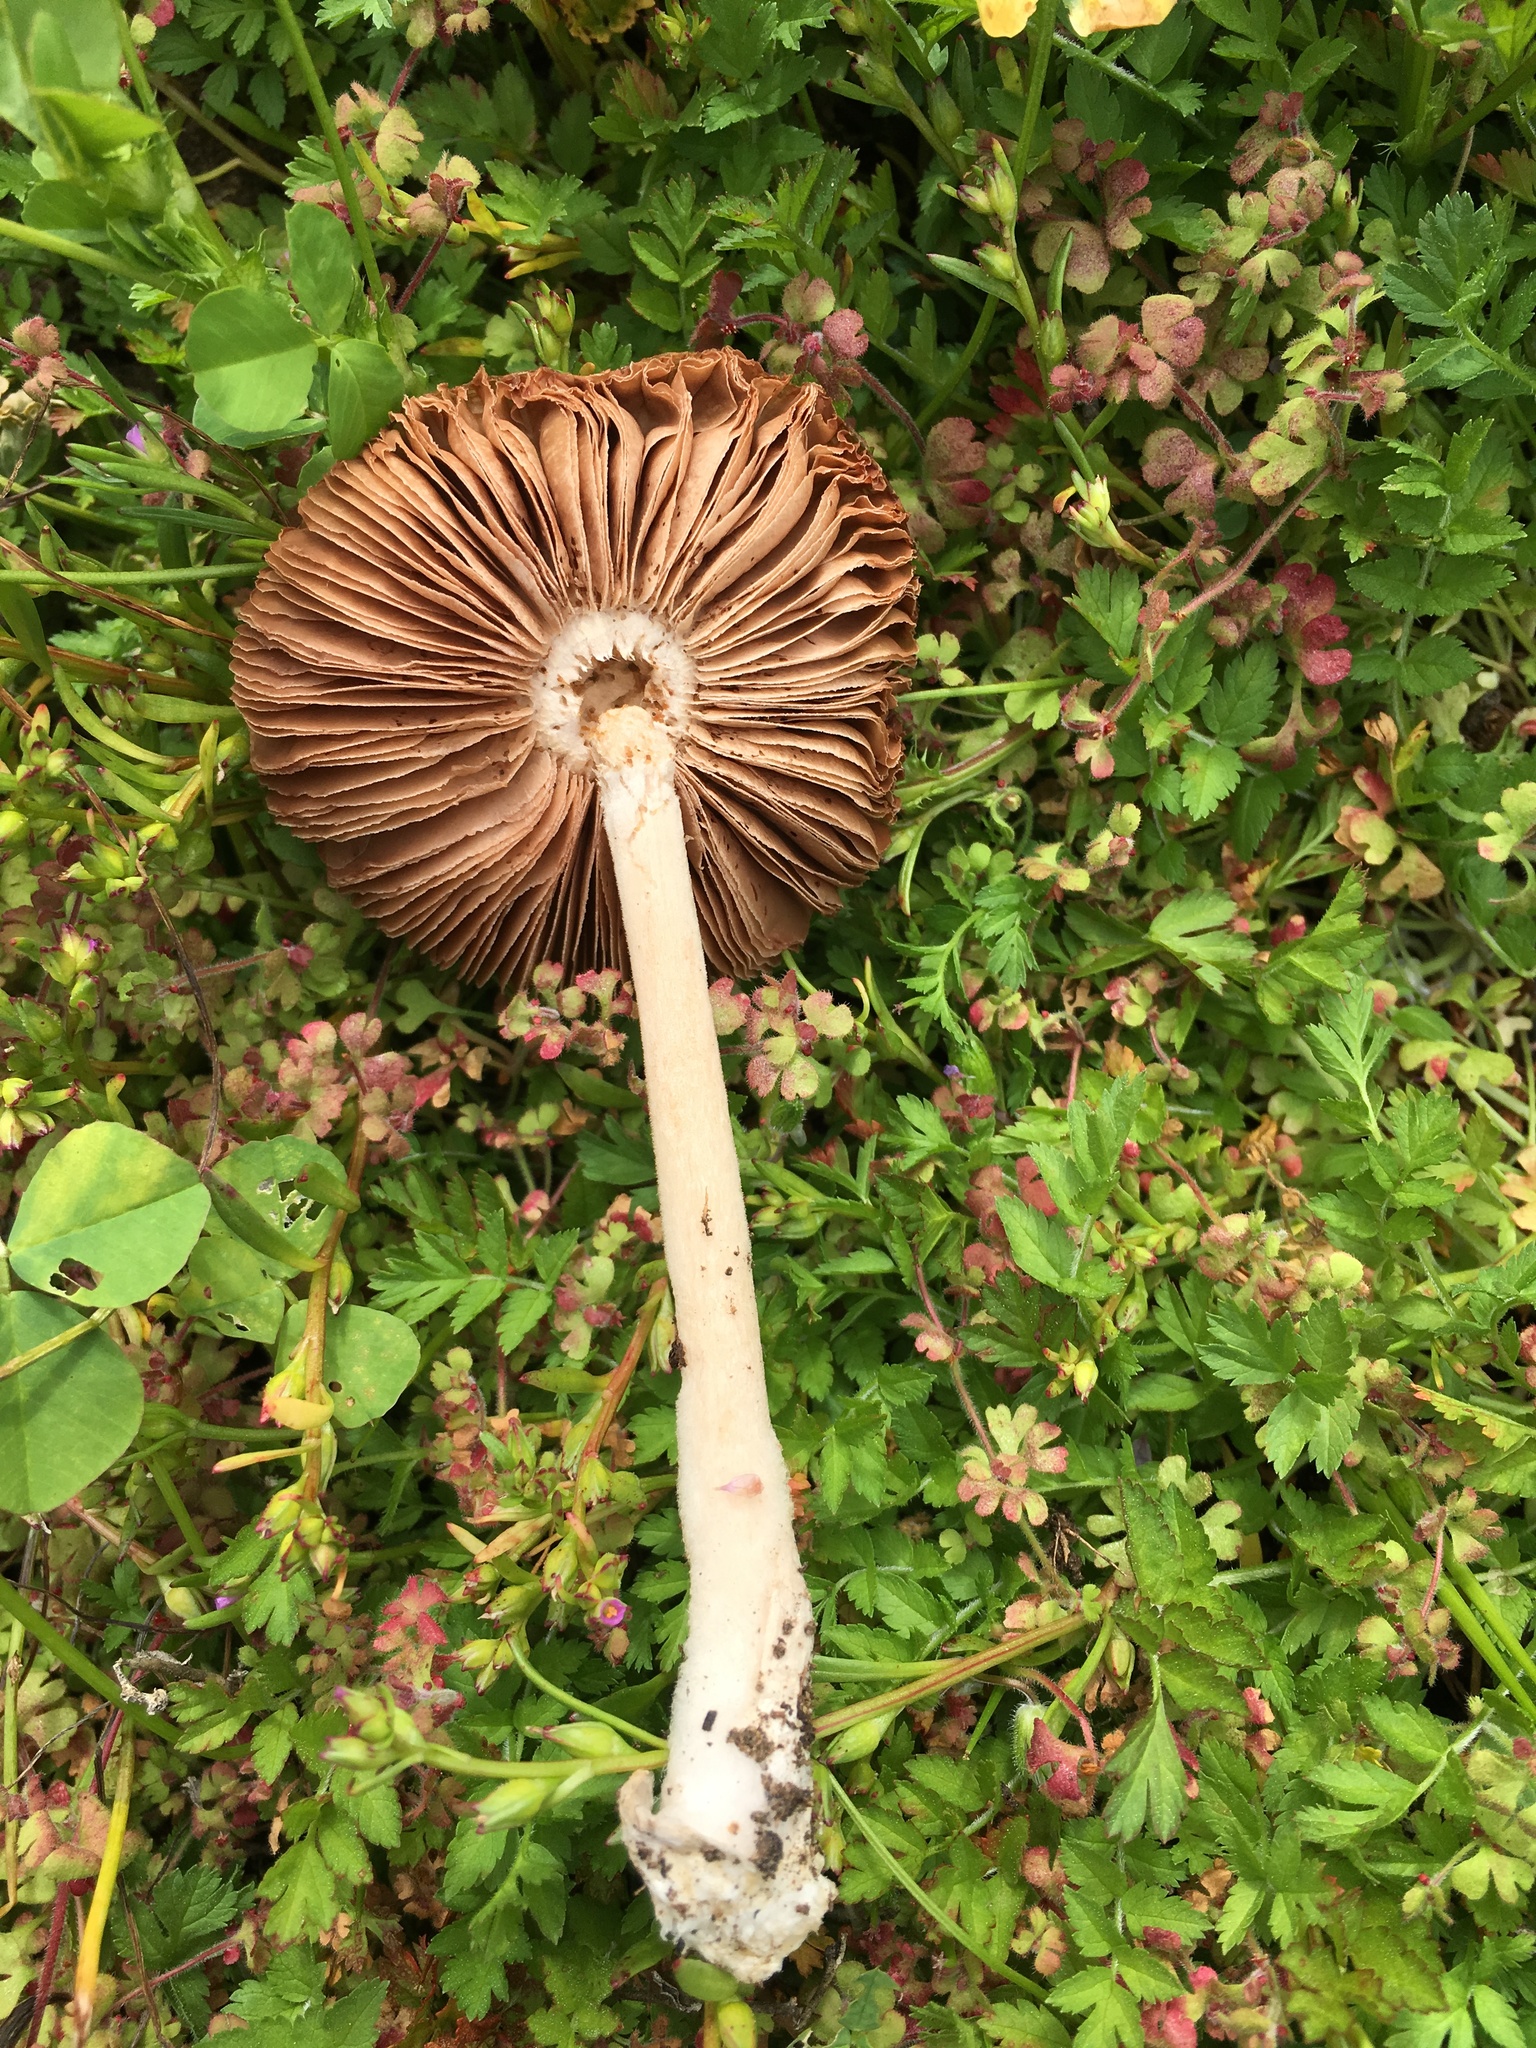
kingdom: Fungi
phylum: Basidiomycota
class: Agaricomycetes
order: Agaricales
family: Pluteaceae
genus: Volvopluteus
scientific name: Volvopluteus gloiocephalus
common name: Stubble rosegill
